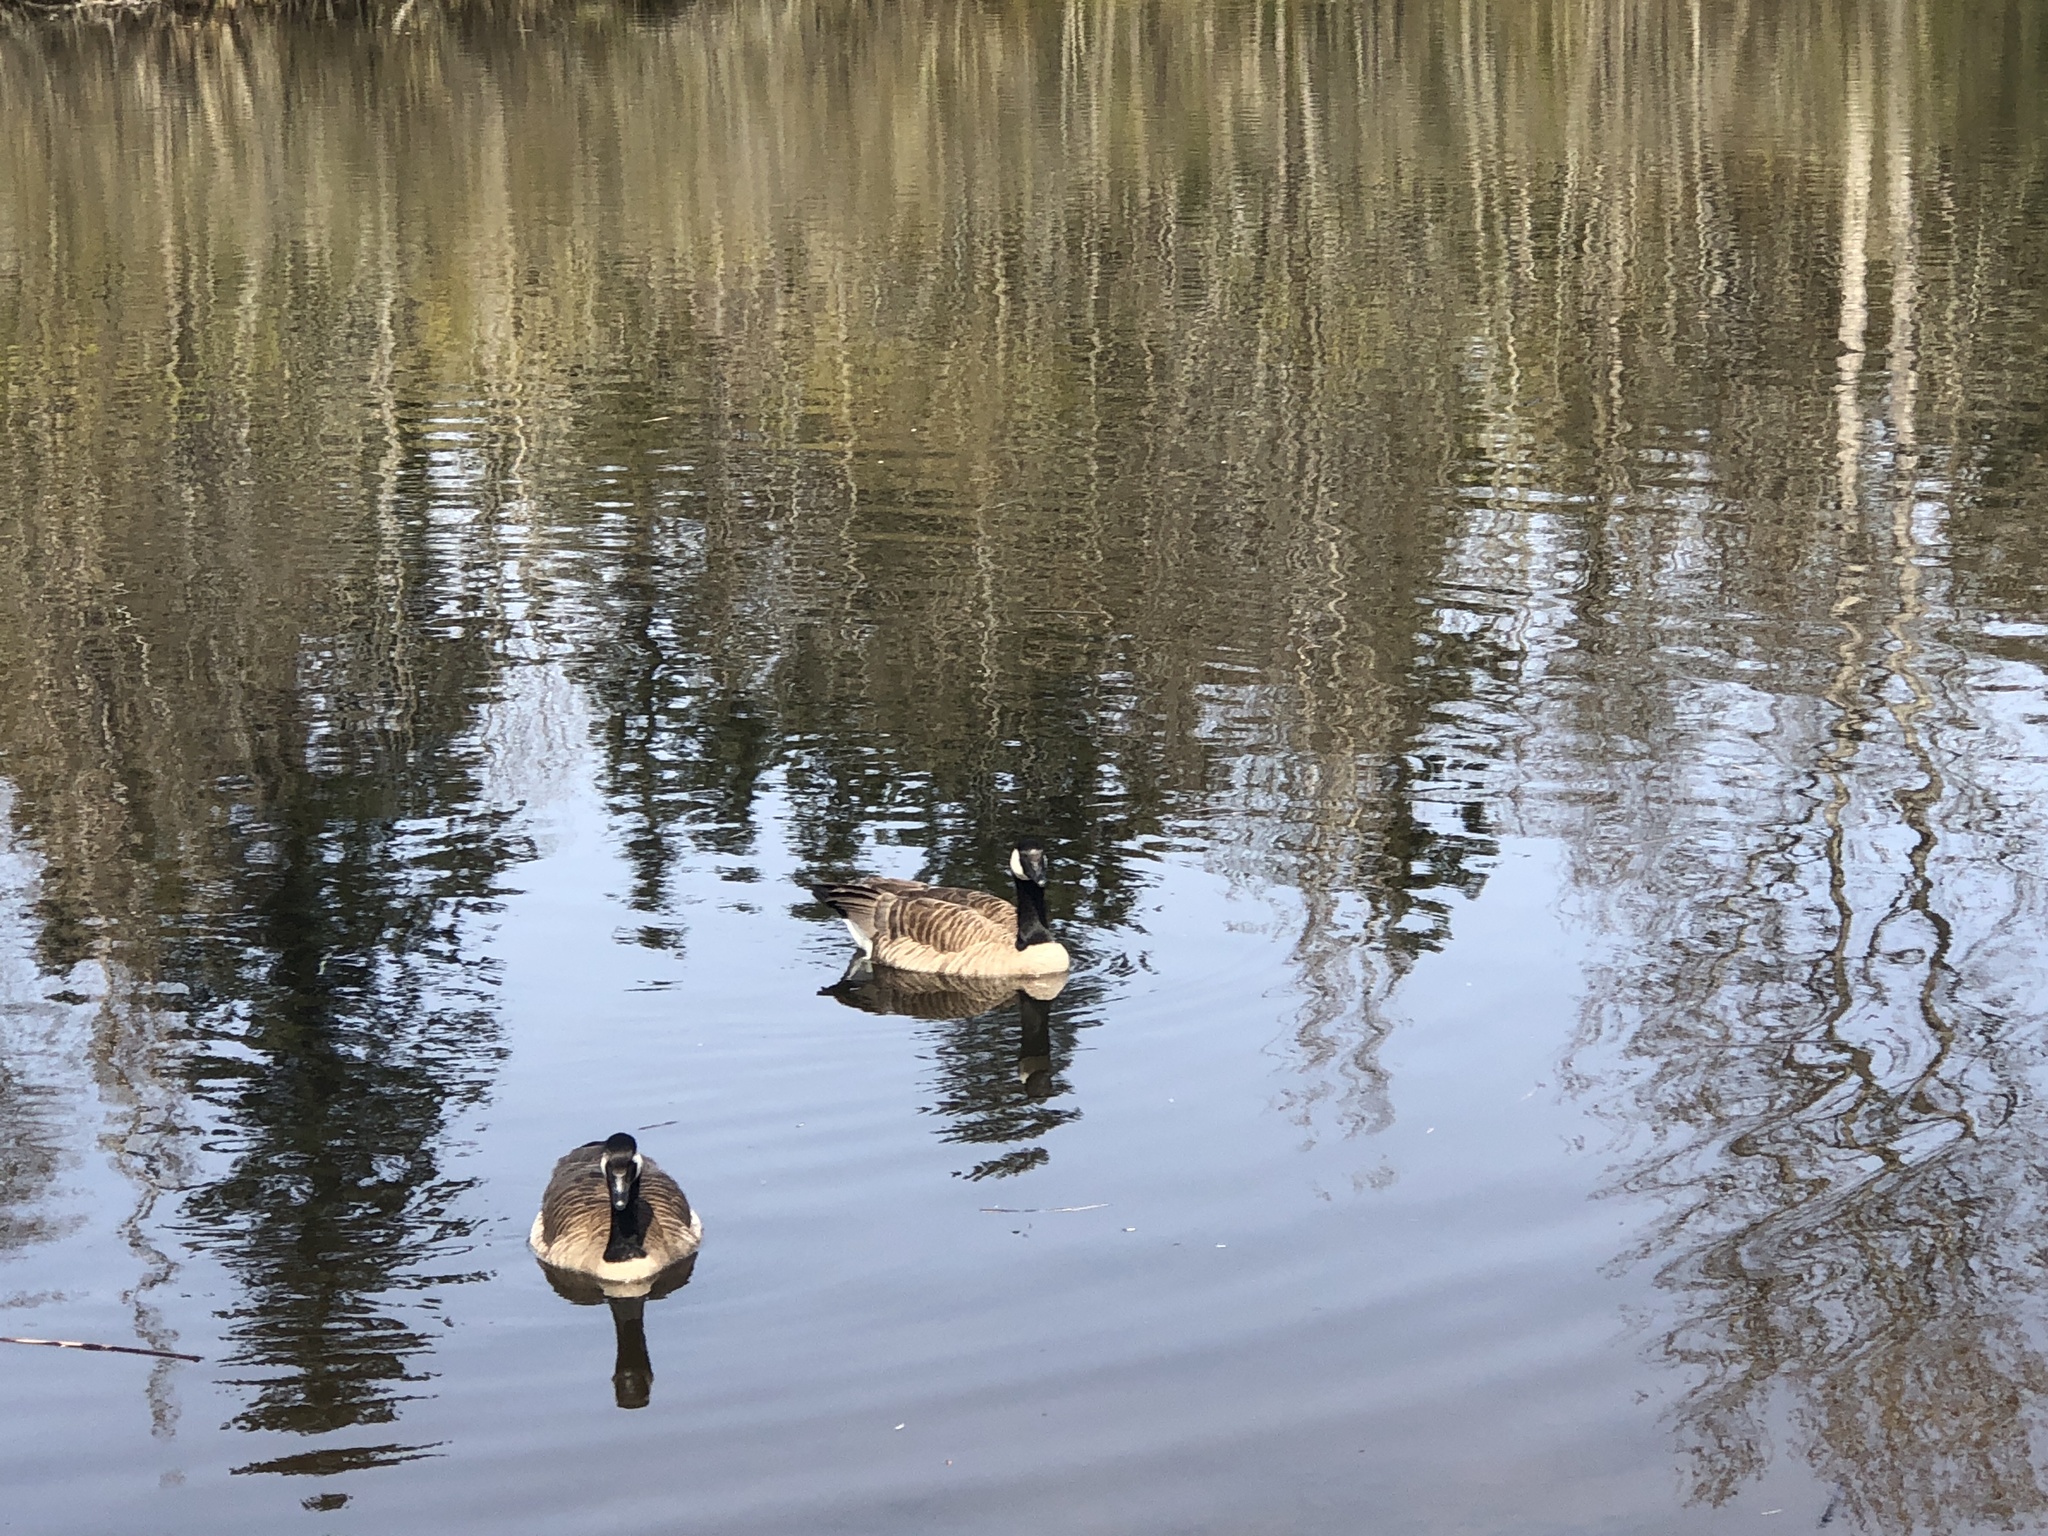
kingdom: Animalia
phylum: Chordata
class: Aves
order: Anseriformes
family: Anatidae
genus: Branta
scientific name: Branta canadensis
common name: Canada goose
